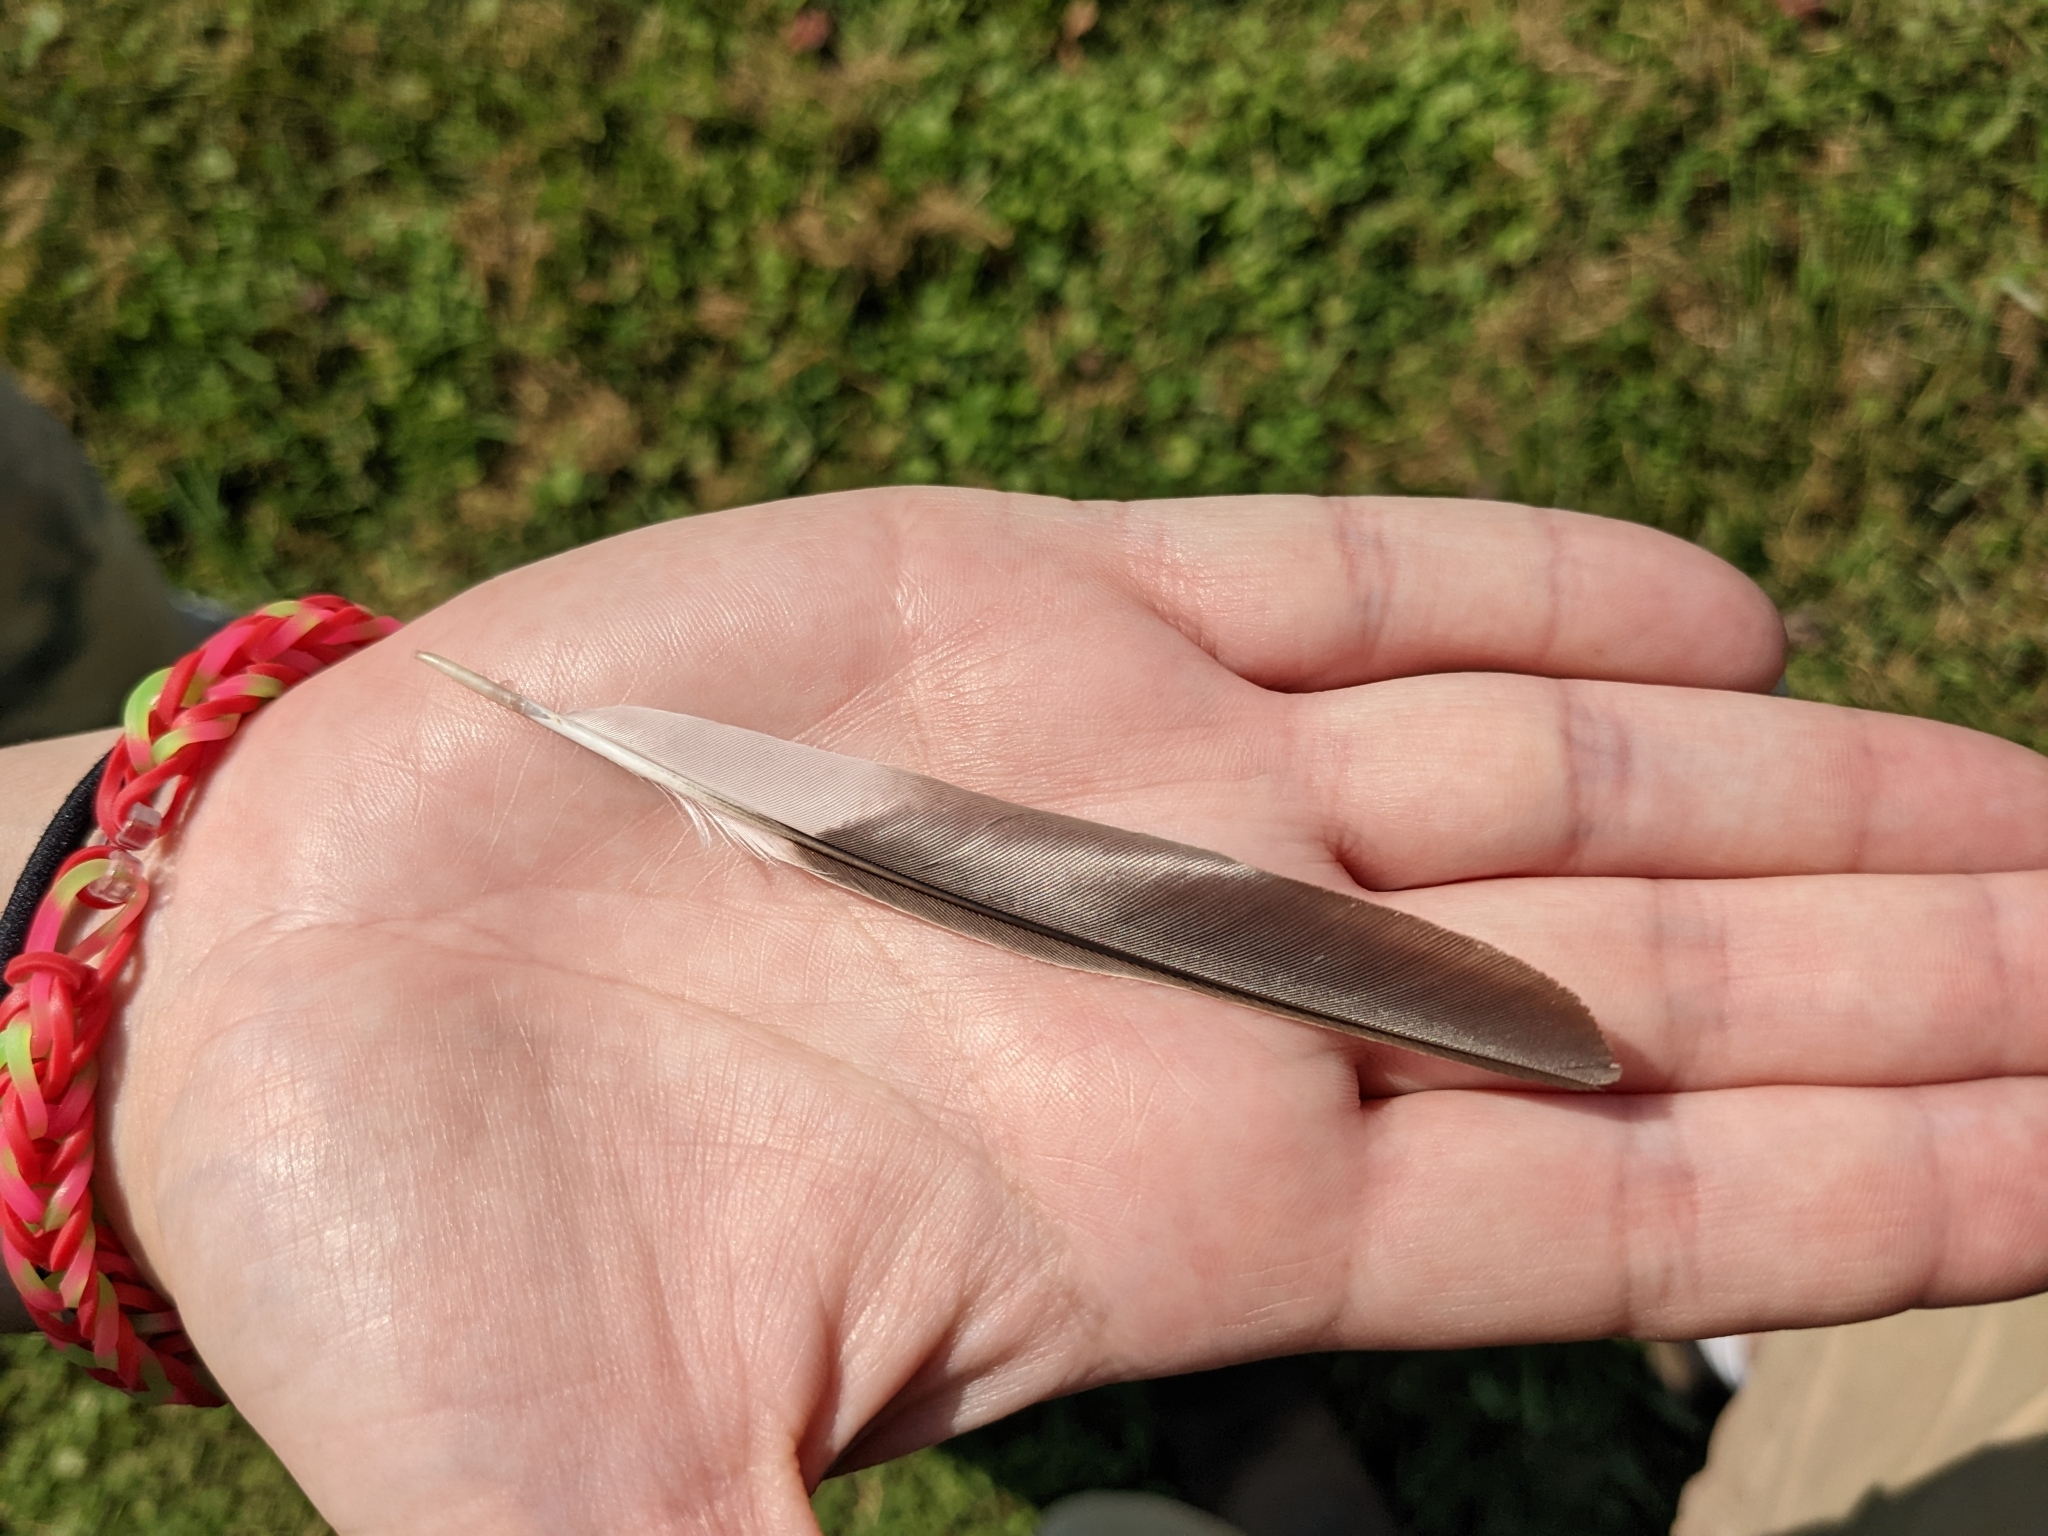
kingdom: Animalia
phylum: Chordata
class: Aves
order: Passeriformes
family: Mimidae
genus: Mimus
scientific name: Mimus polyglottos
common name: Northern mockingbird
